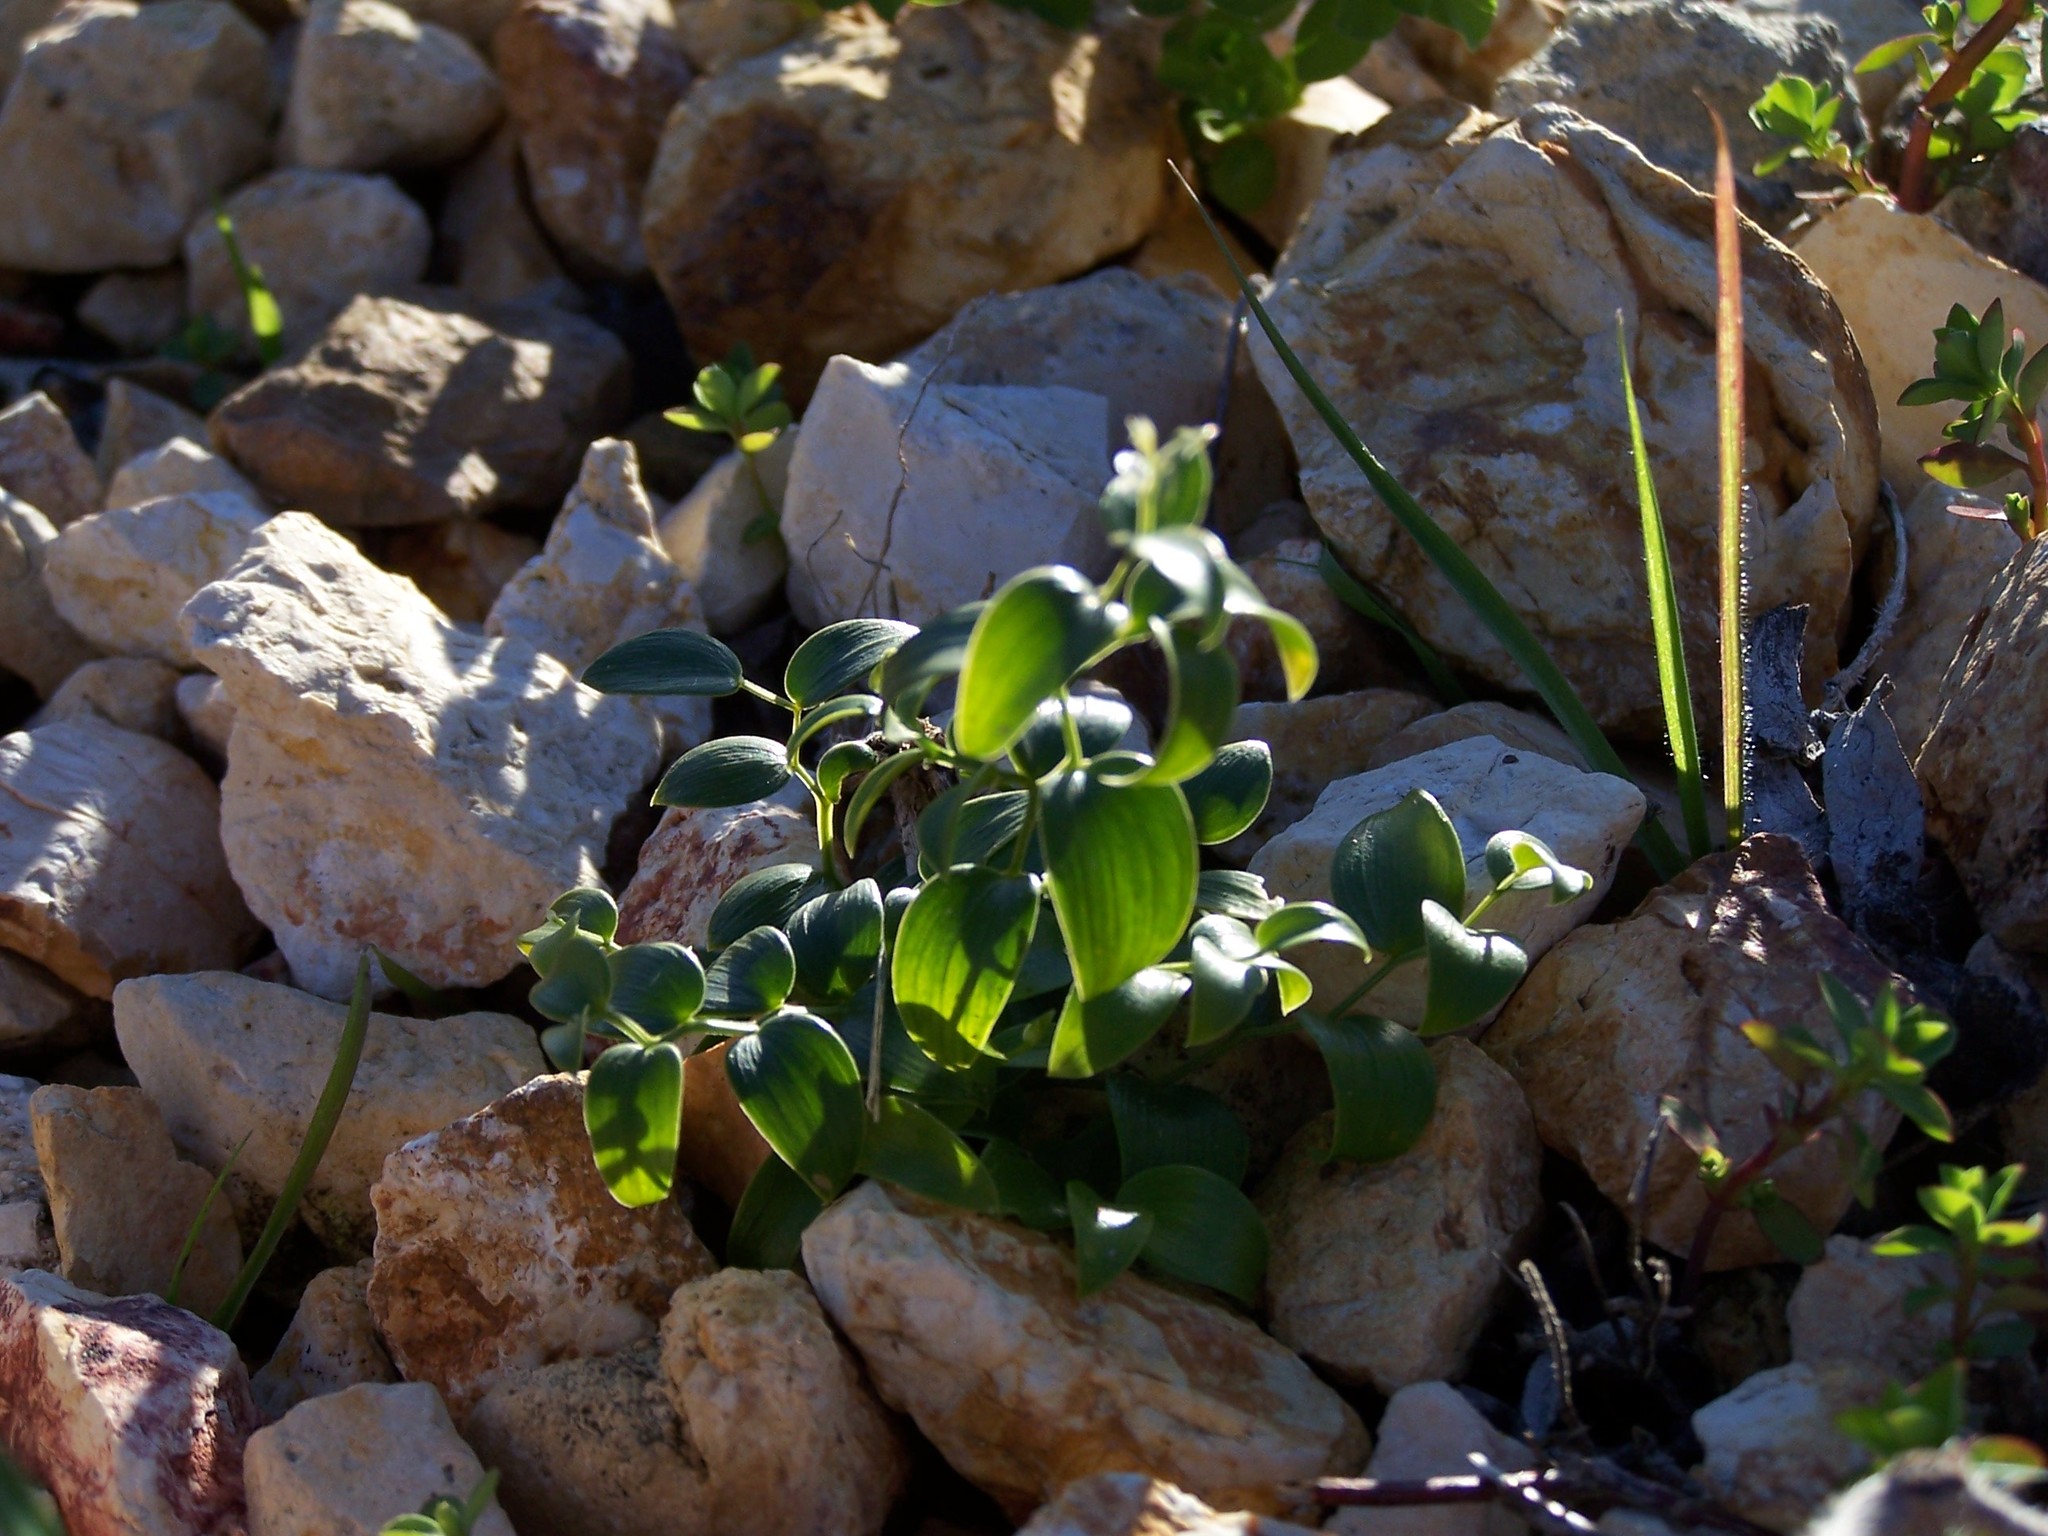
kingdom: Plantae
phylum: Tracheophyta
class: Liliopsida
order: Asparagales
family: Asparagaceae
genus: Asparagus
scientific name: Asparagus asparagoides
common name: African asparagus fern
